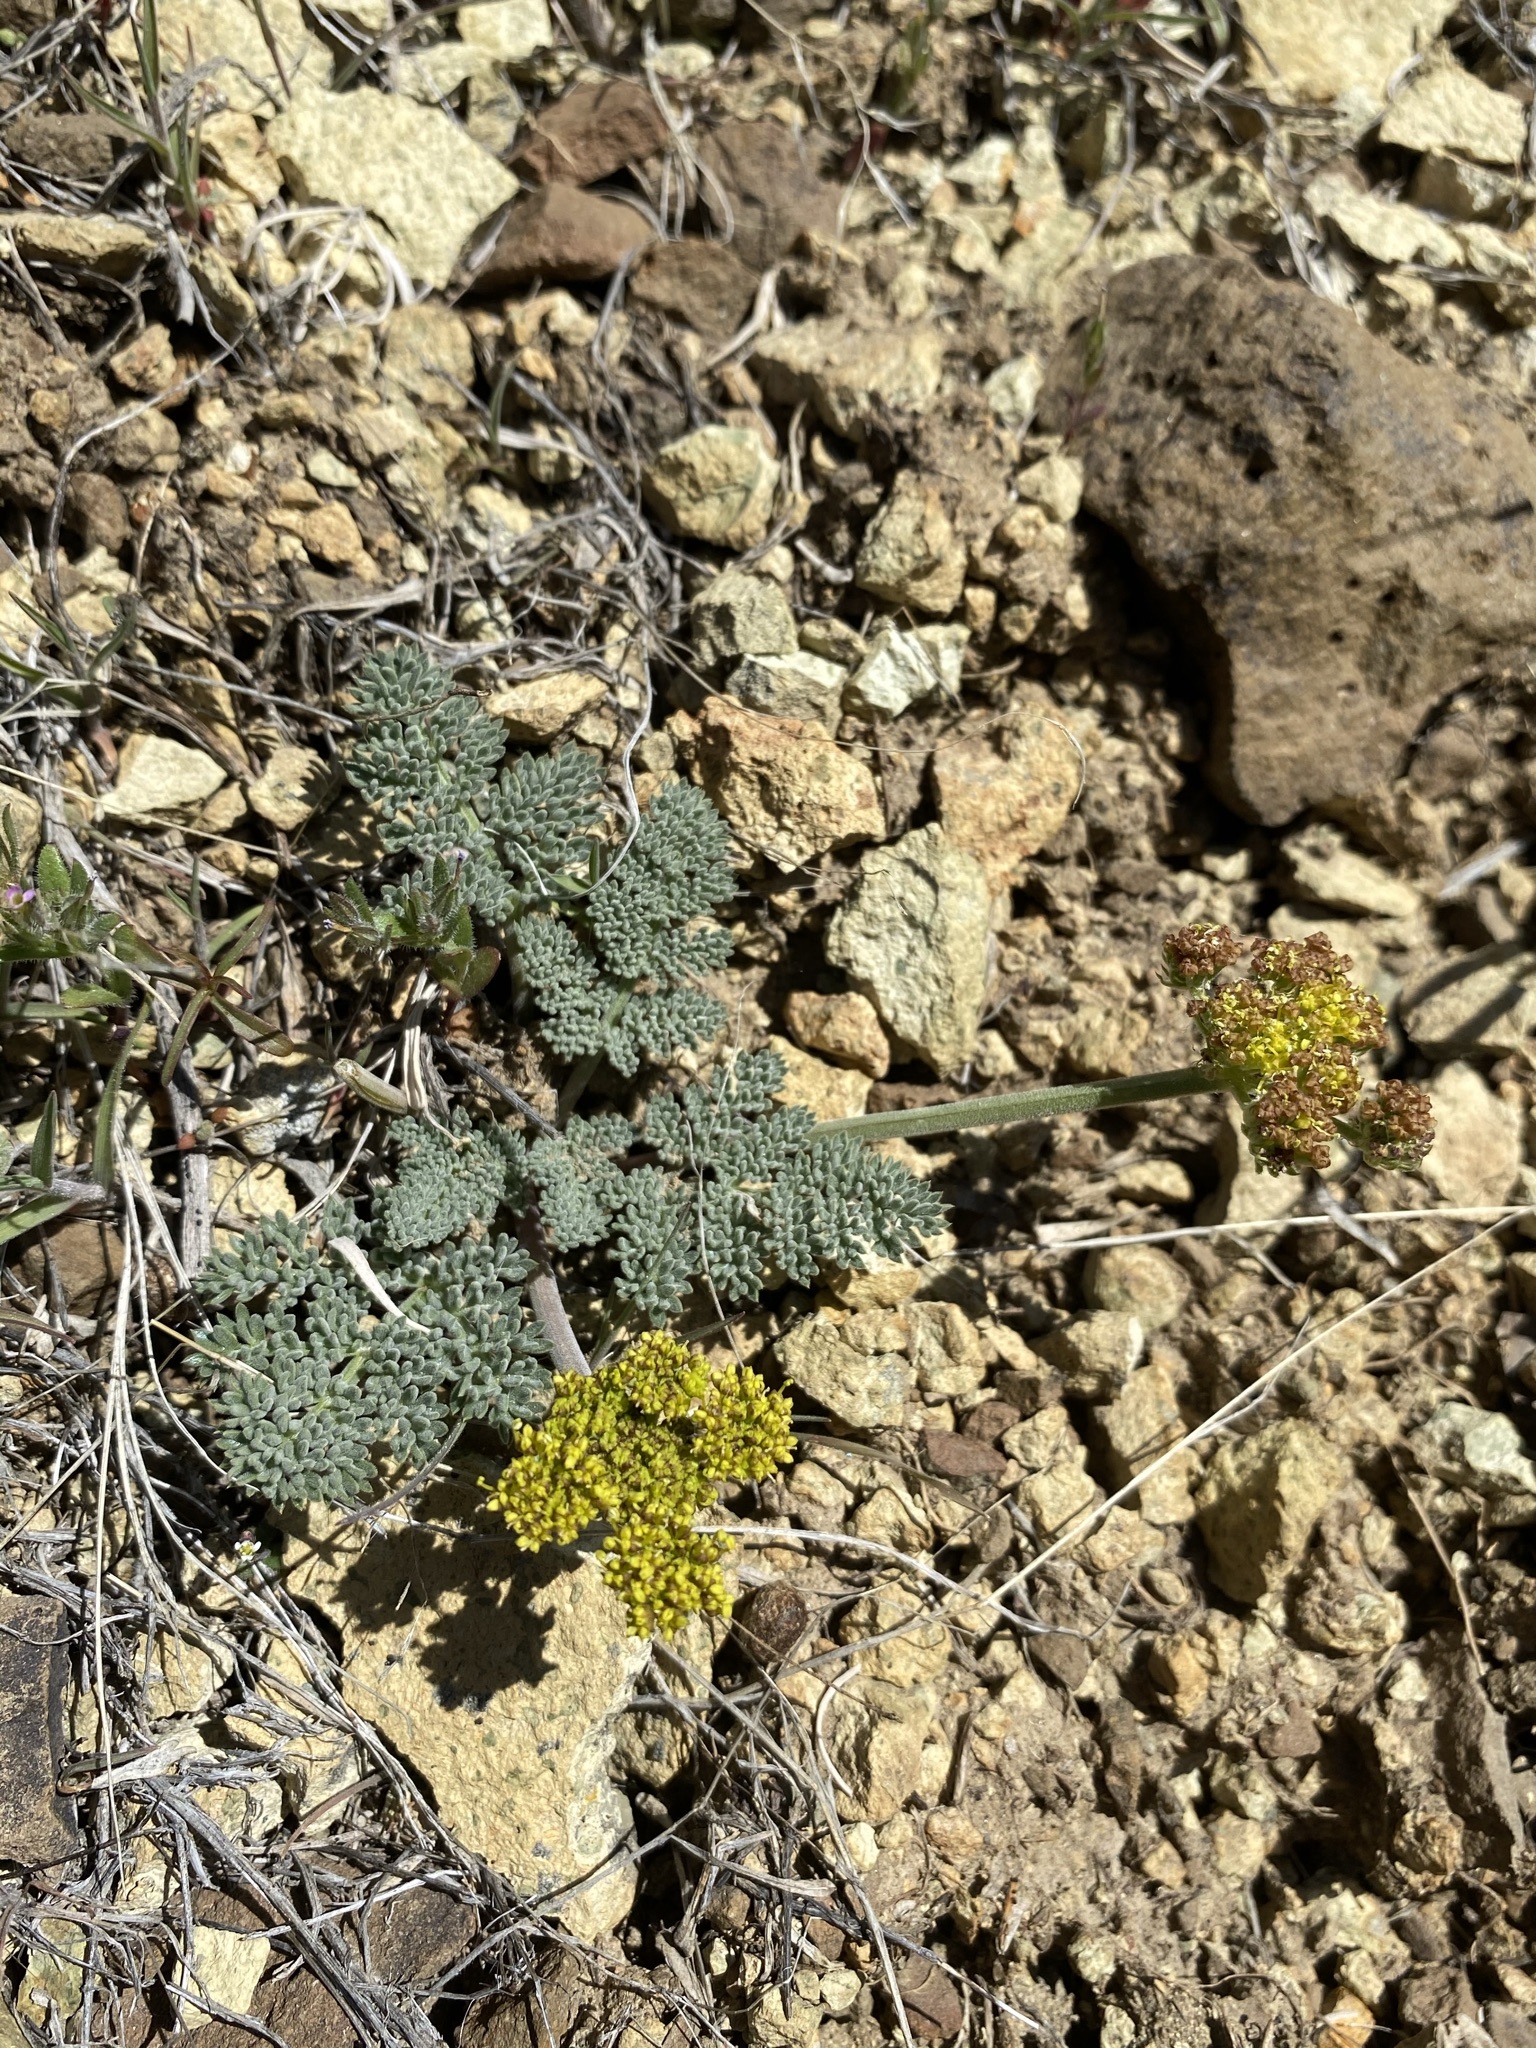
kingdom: Plantae
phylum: Tracheophyta
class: Magnoliopsida
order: Apiales
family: Apiaceae
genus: Lomatium
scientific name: Lomatium foeniculaceum
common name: Desert-parsley
